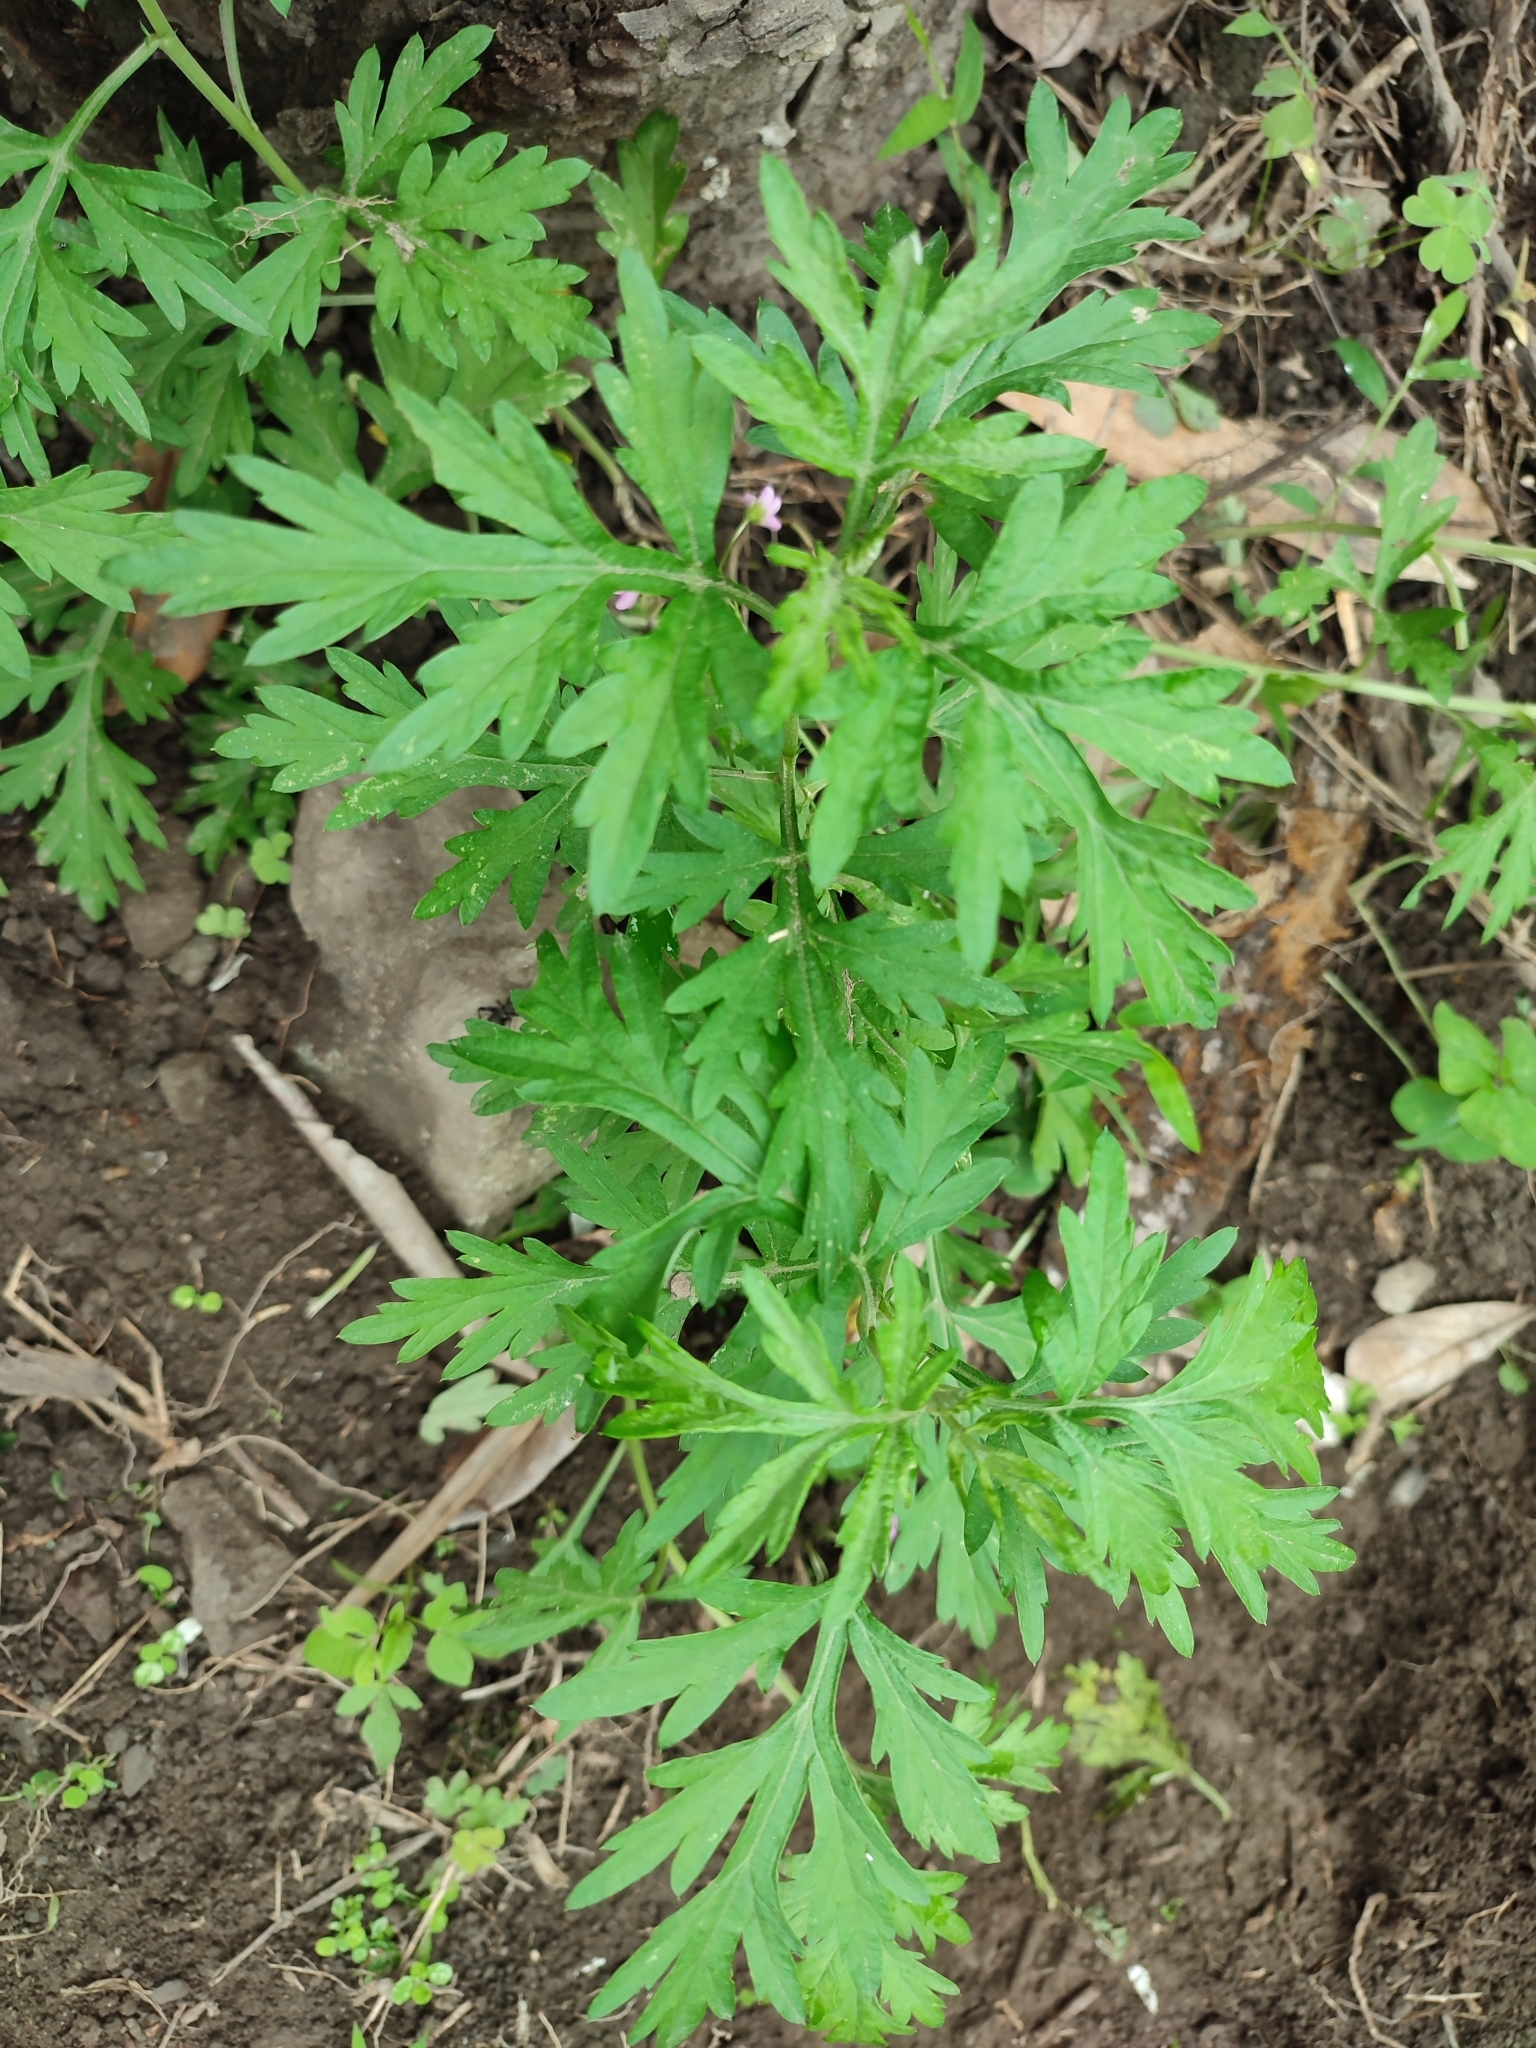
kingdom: Plantae
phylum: Tracheophyta
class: Magnoliopsida
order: Asterales
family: Asteraceae
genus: Artemisia
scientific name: Artemisia indica
